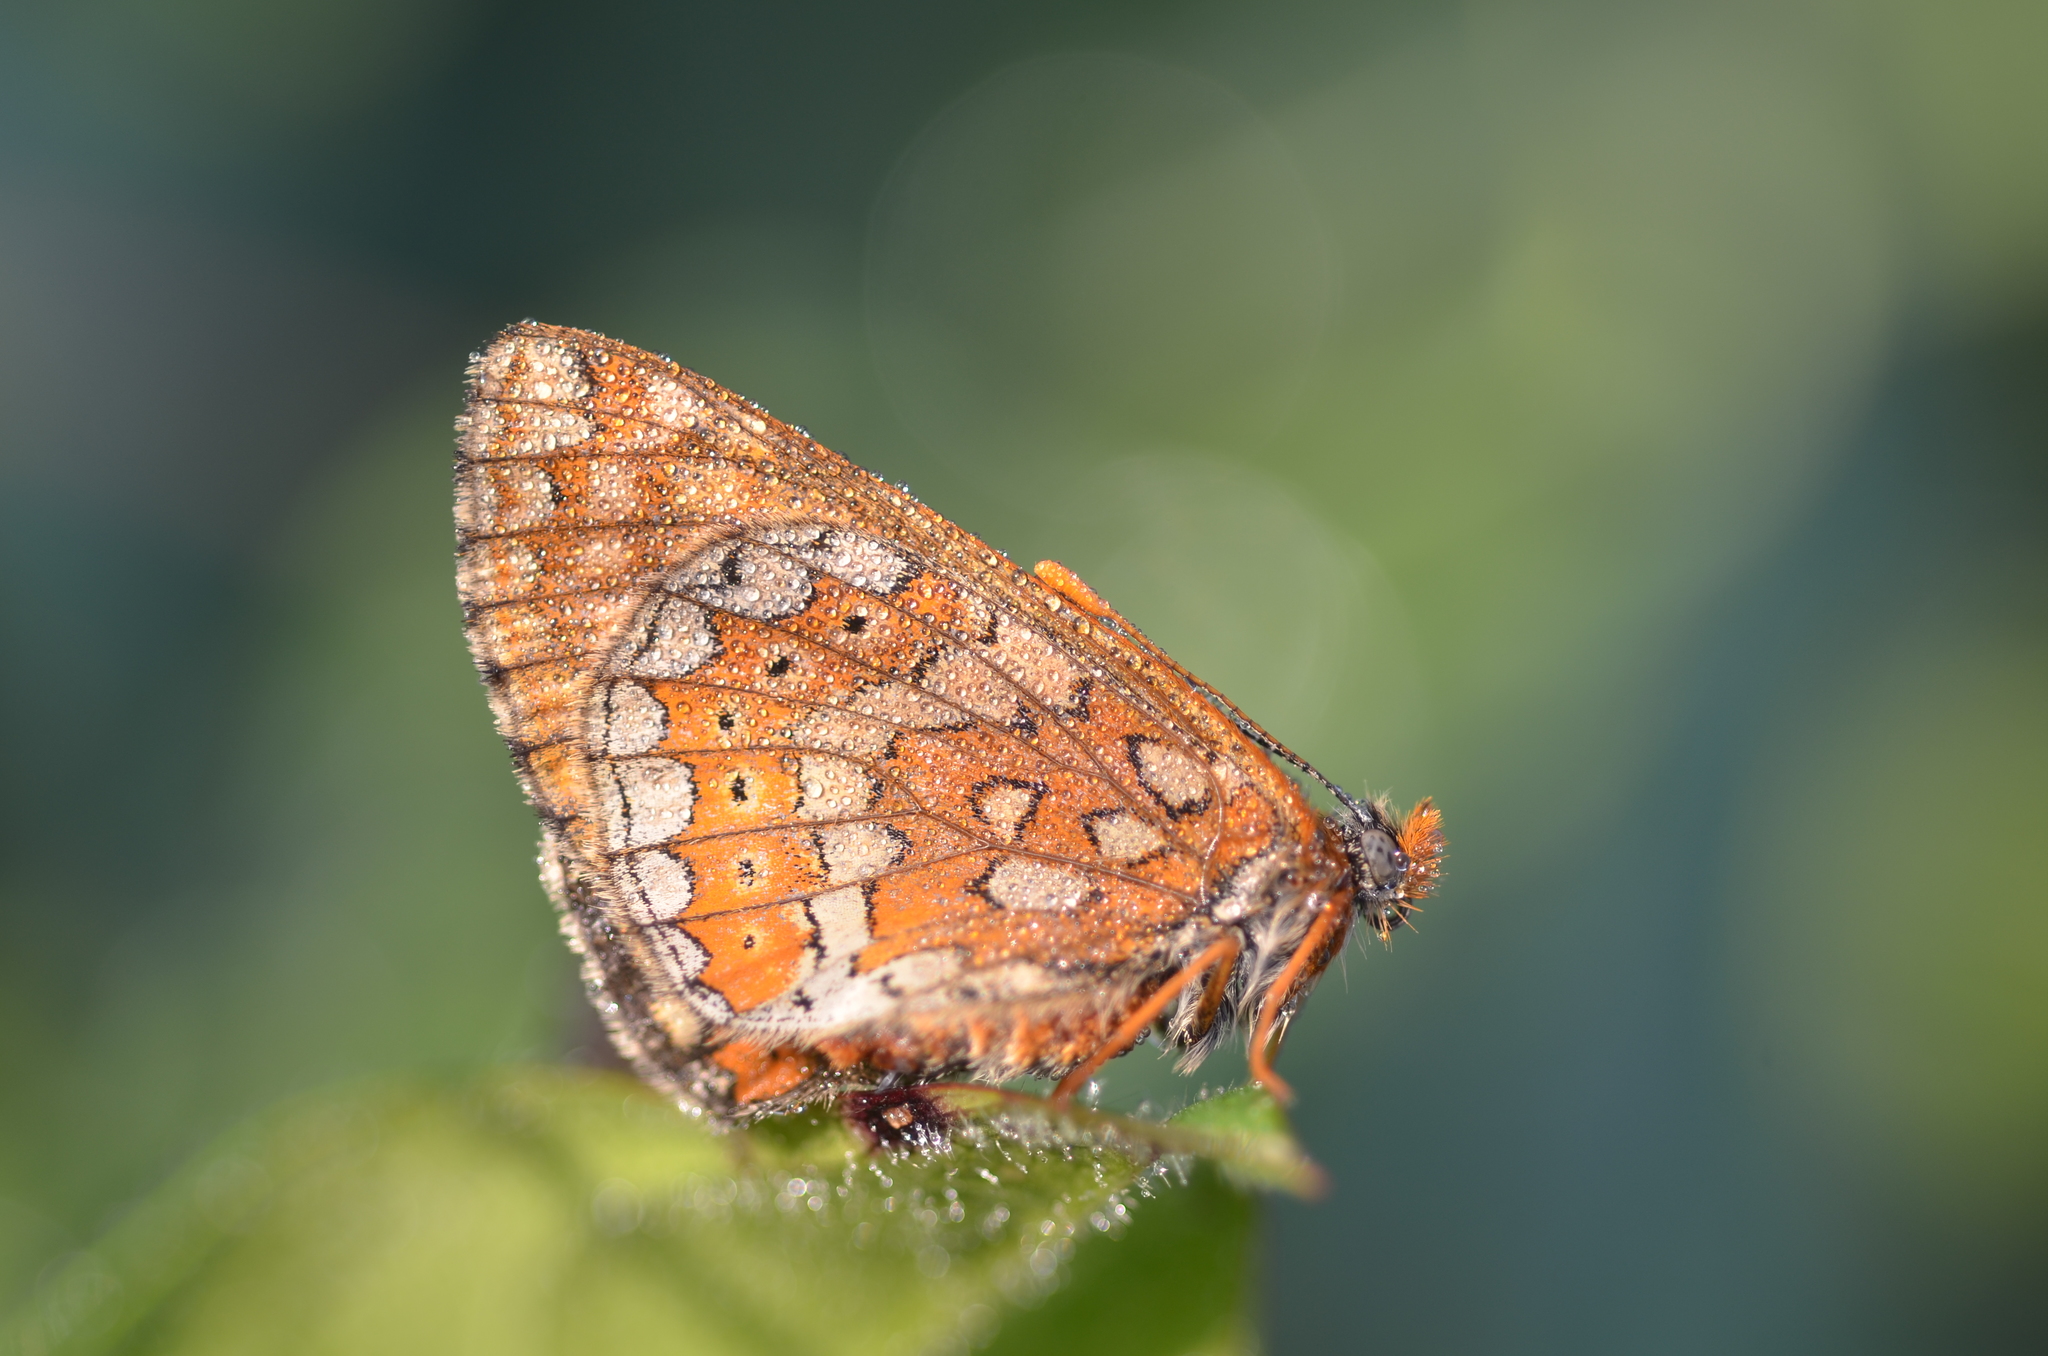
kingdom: Animalia
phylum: Arthropoda
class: Insecta
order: Lepidoptera
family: Nymphalidae
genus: Euphydryas
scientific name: Euphydryas aurinia
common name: Marsh fritillary
